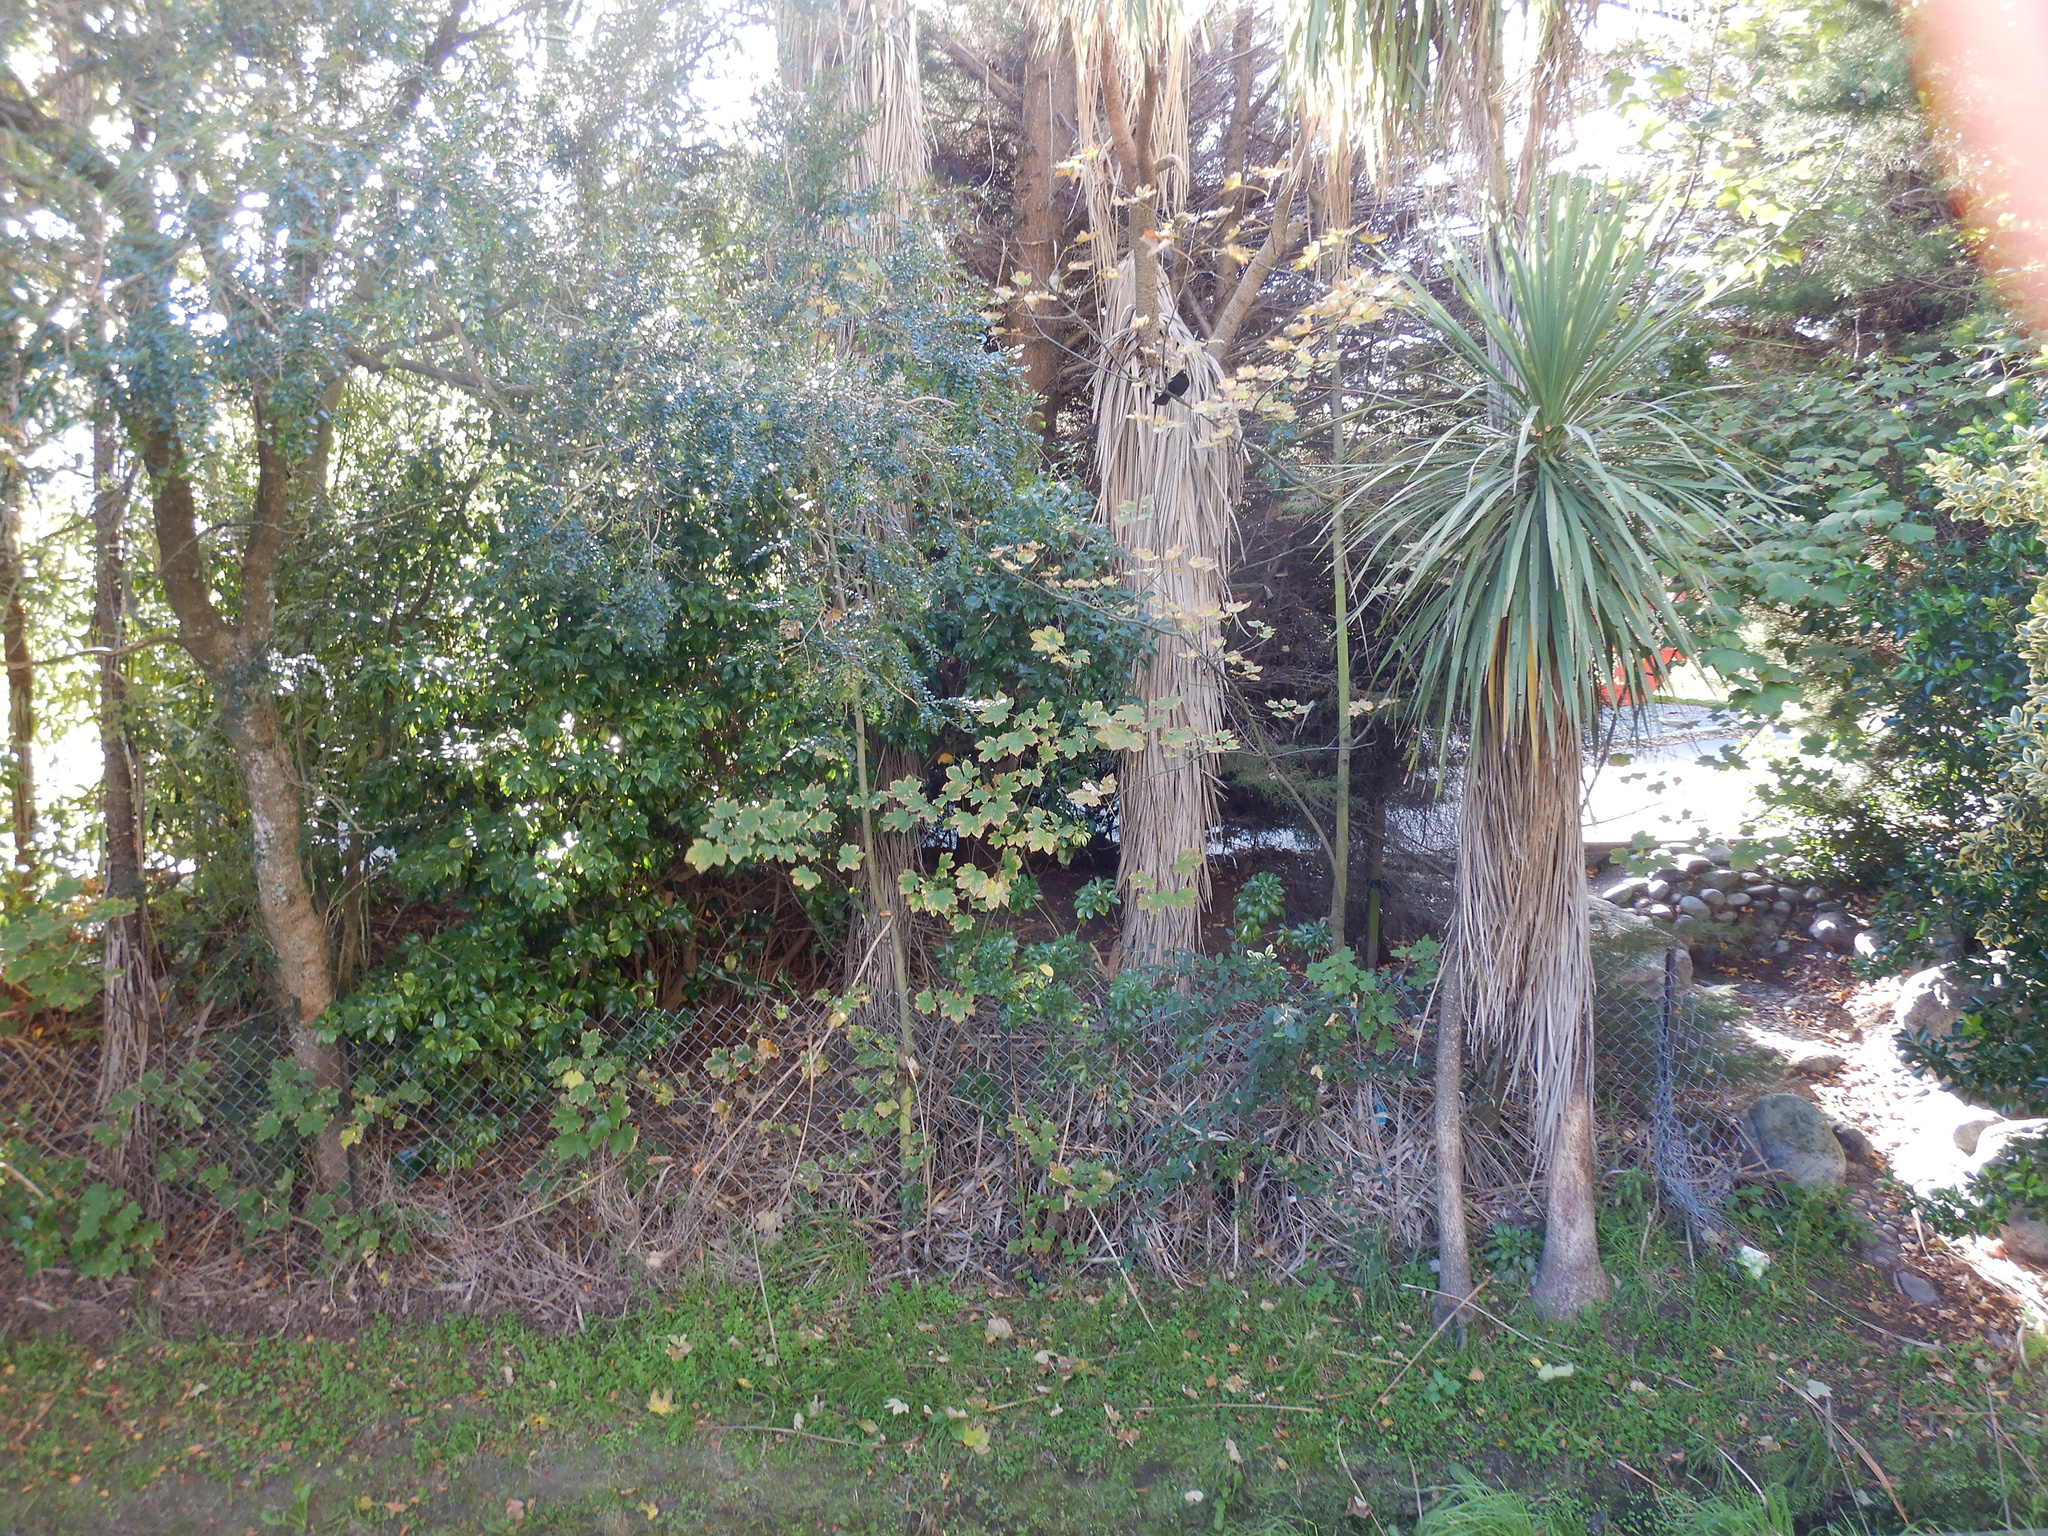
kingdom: Plantae
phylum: Tracheophyta
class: Magnoliopsida
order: Sapindales
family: Sapindaceae
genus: Acer
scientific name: Acer pseudoplatanus
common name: Sycamore
